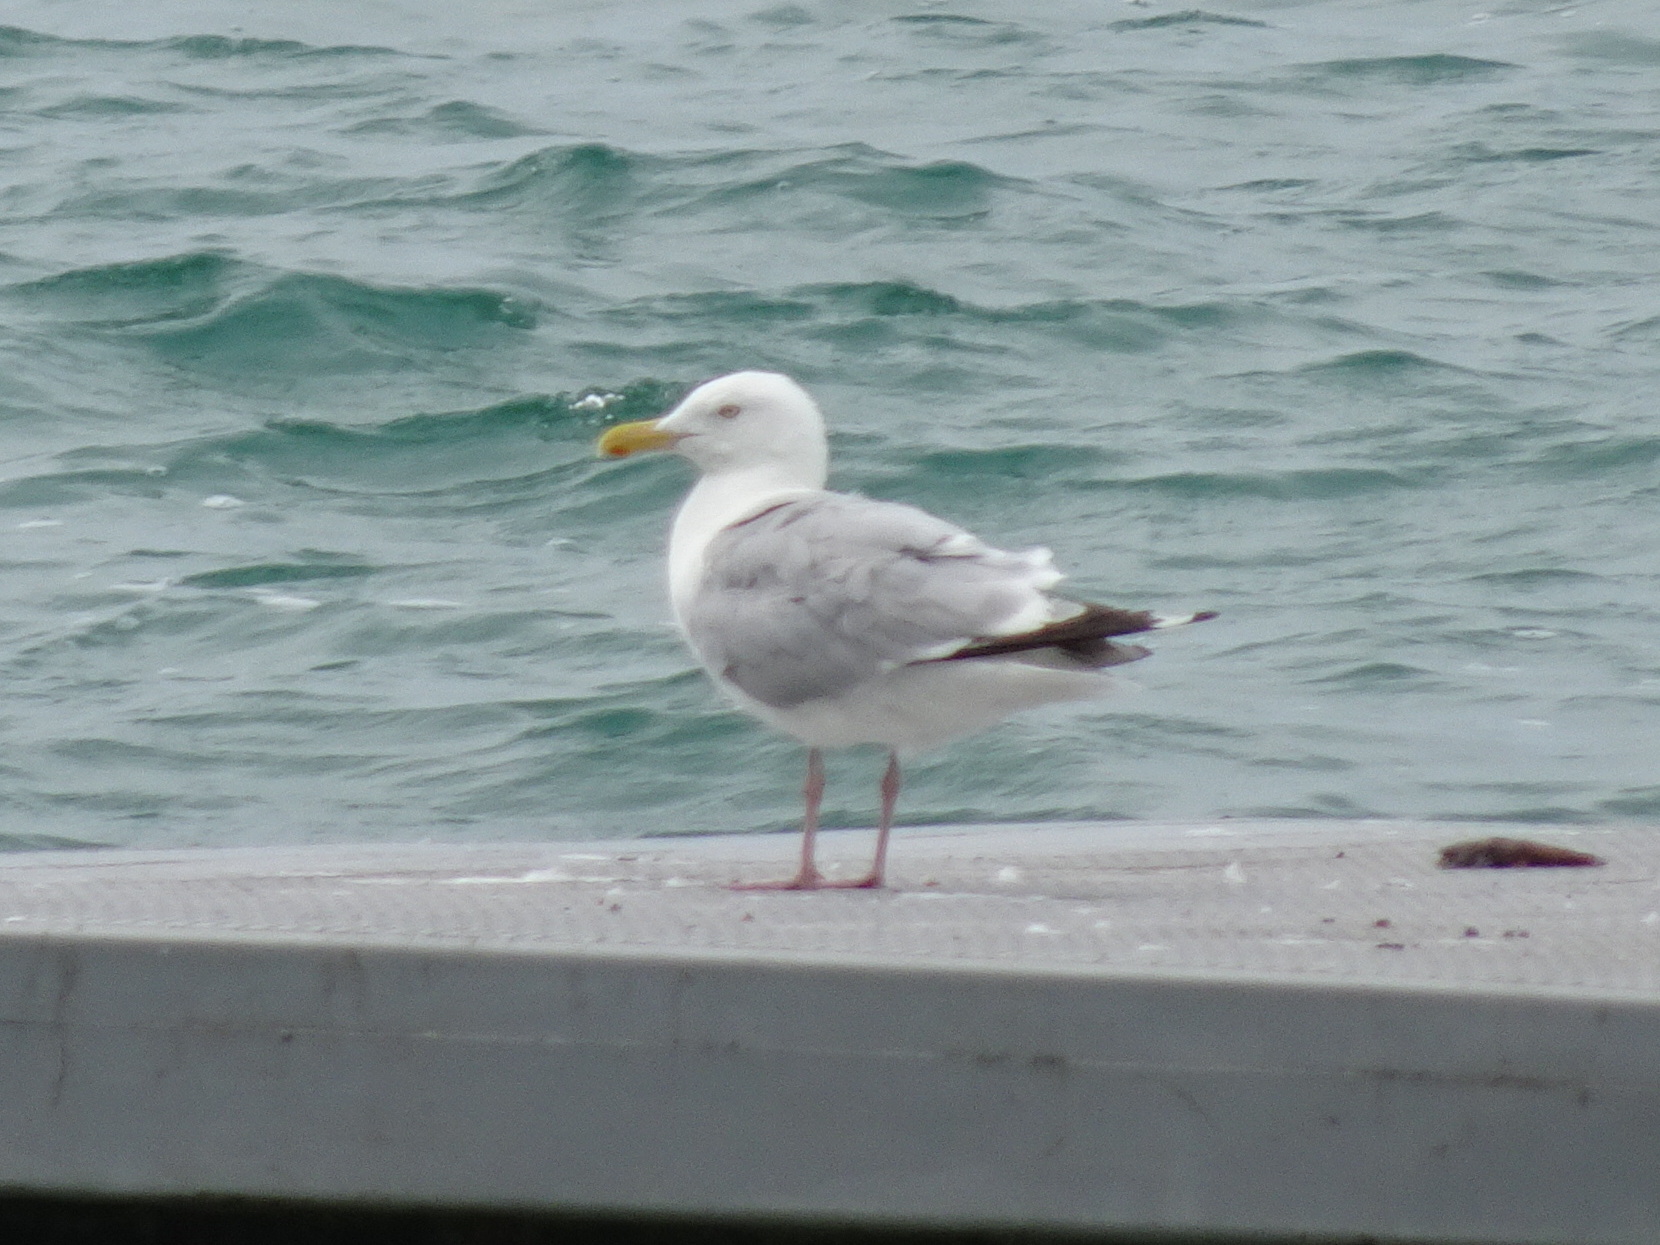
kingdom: Animalia
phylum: Chordata
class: Aves
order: Charadriiformes
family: Laridae
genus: Larus
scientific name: Larus argentatus
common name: Herring gull
